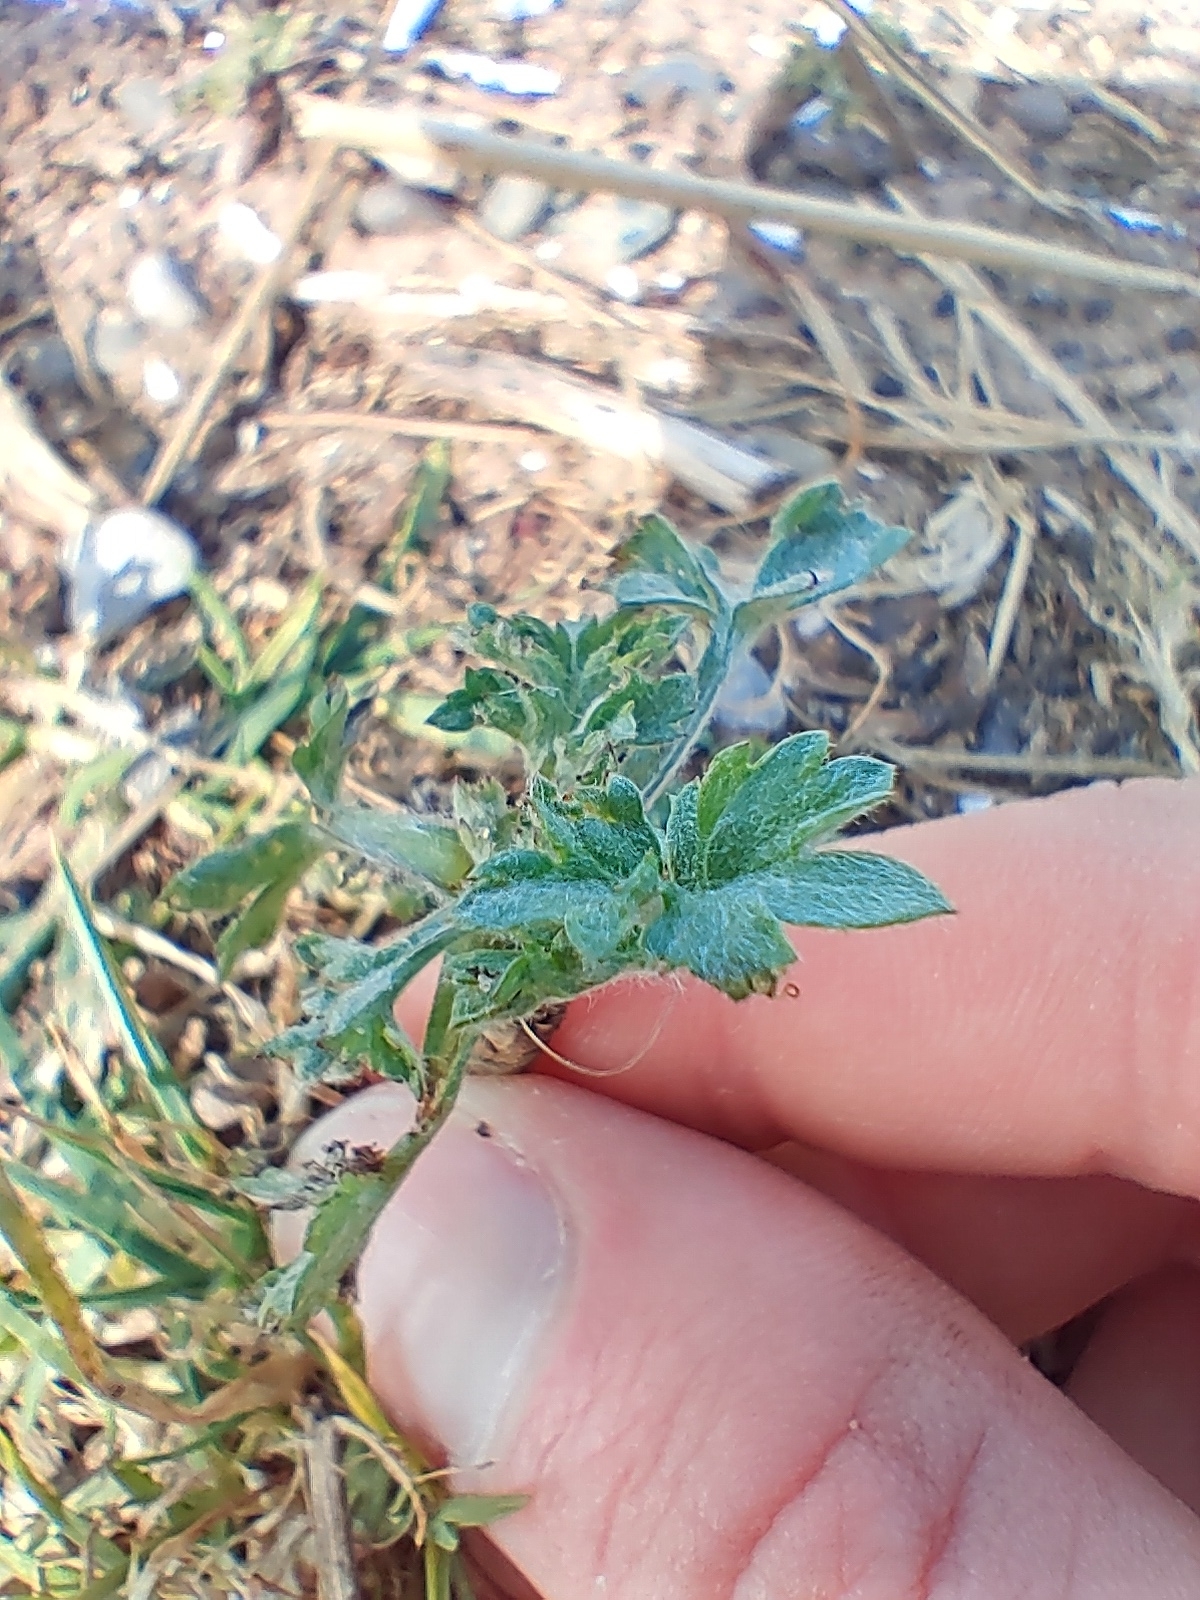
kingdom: Plantae
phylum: Tracheophyta
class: Magnoliopsida
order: Asterales
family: Asteraceae
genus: Artemisia
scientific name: Artemisia vulgaris
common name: Mugwort
